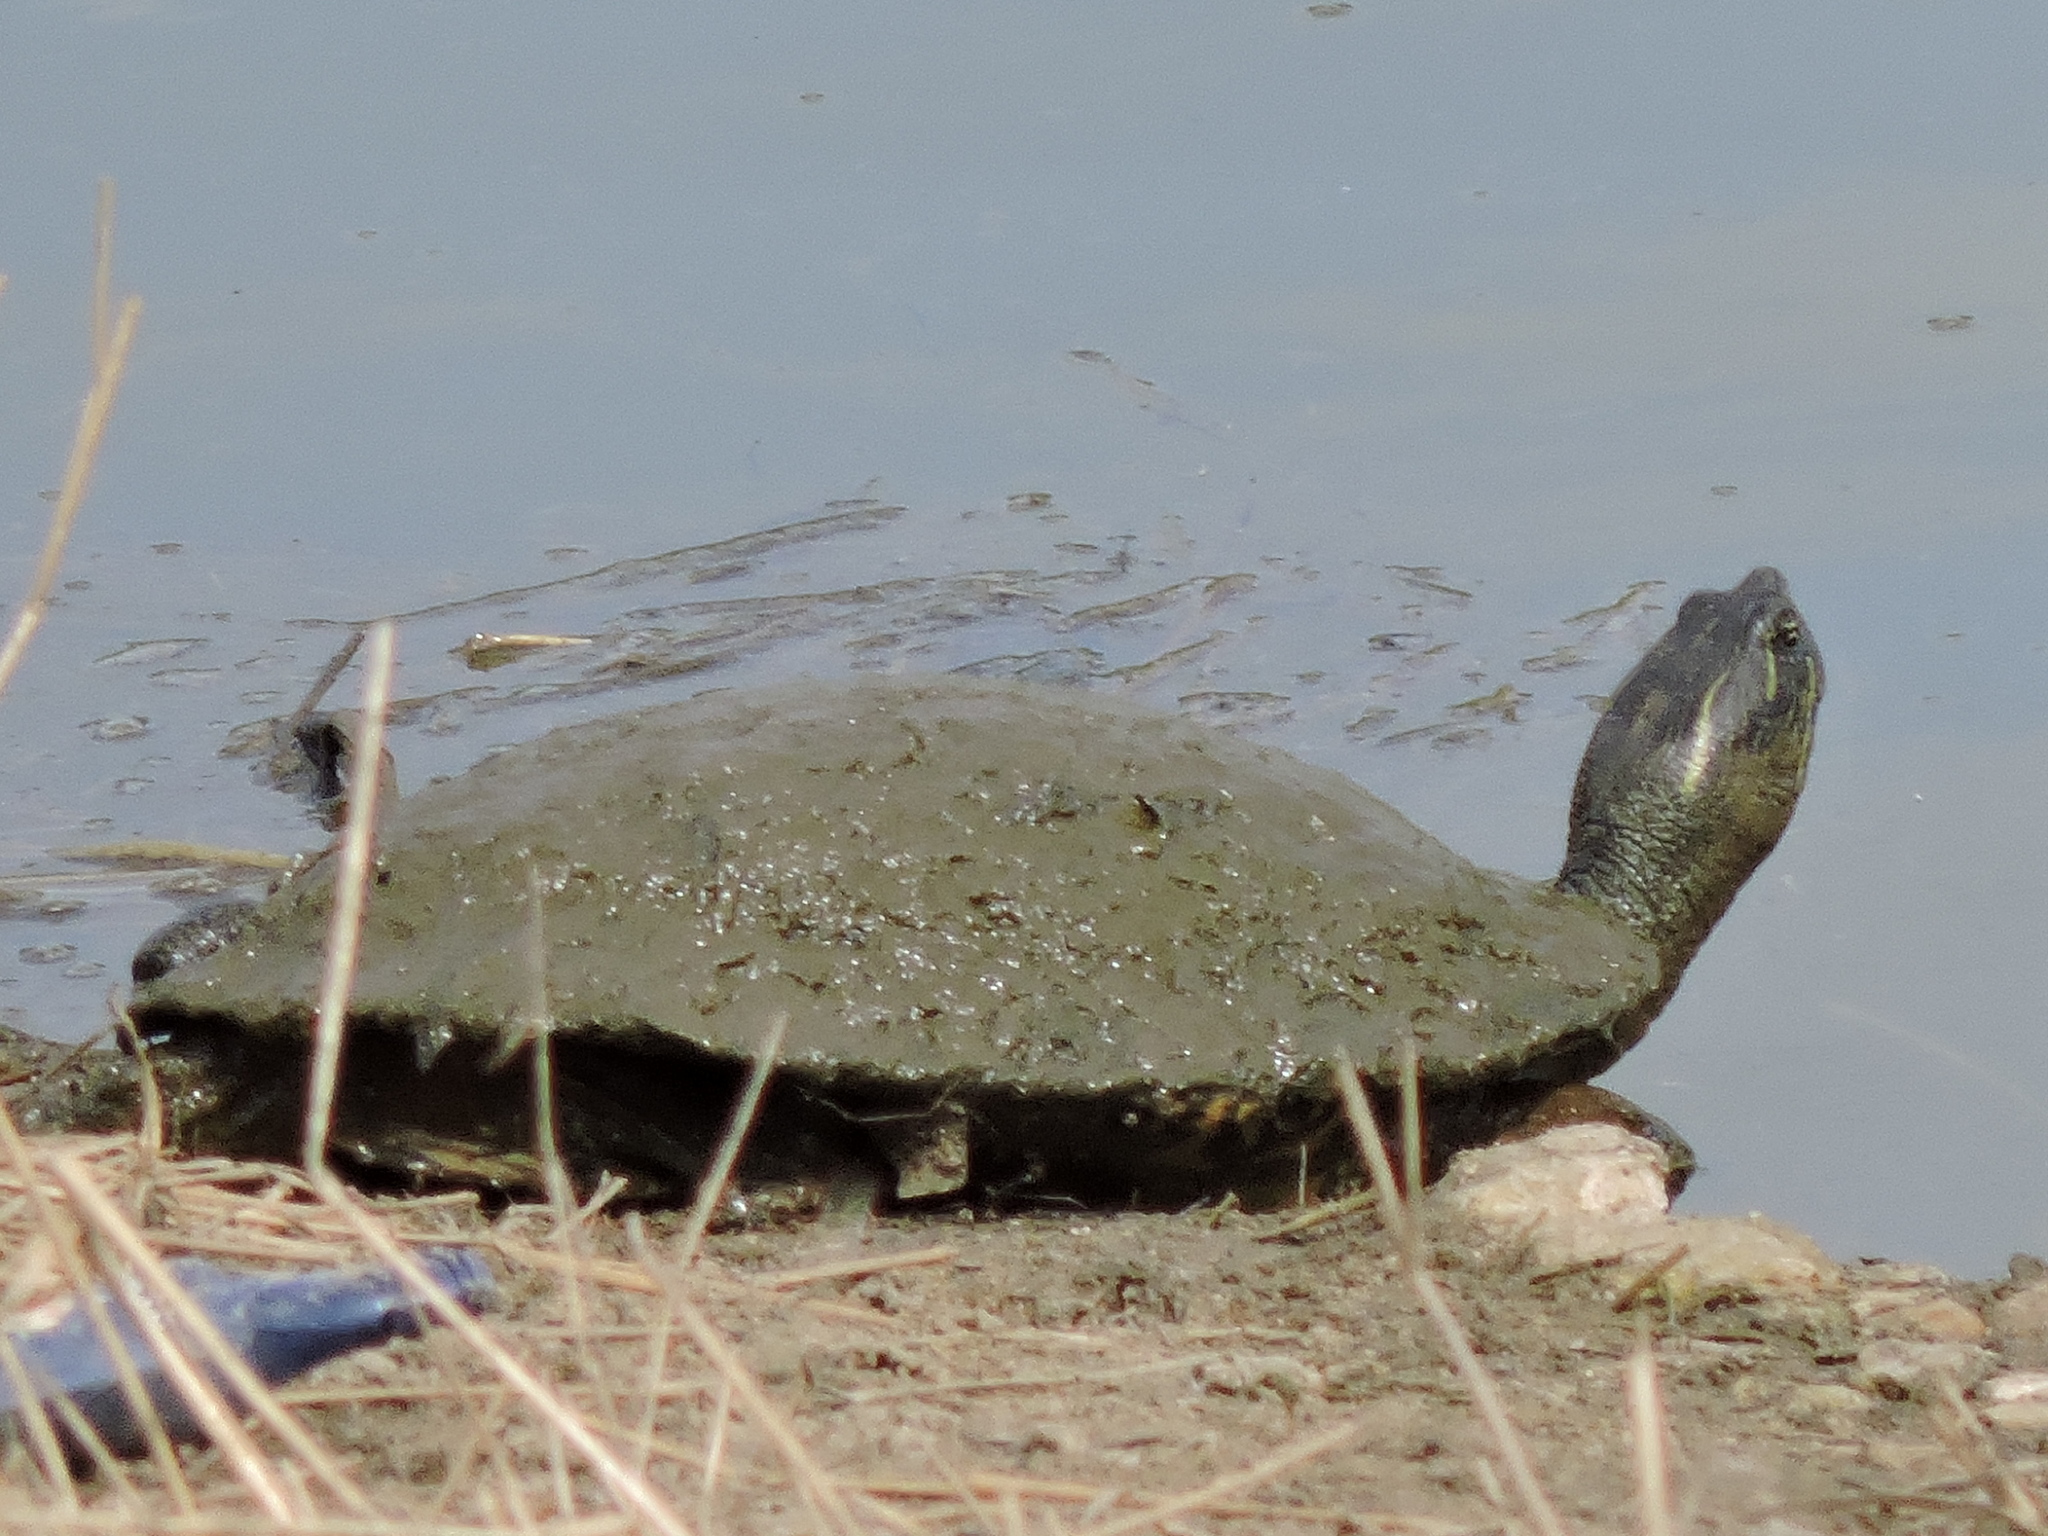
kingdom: Animalia
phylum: Chordata
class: Testudines
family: Emydidae
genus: Pseudemys
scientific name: Pseudemys texana
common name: Texas river cooter
